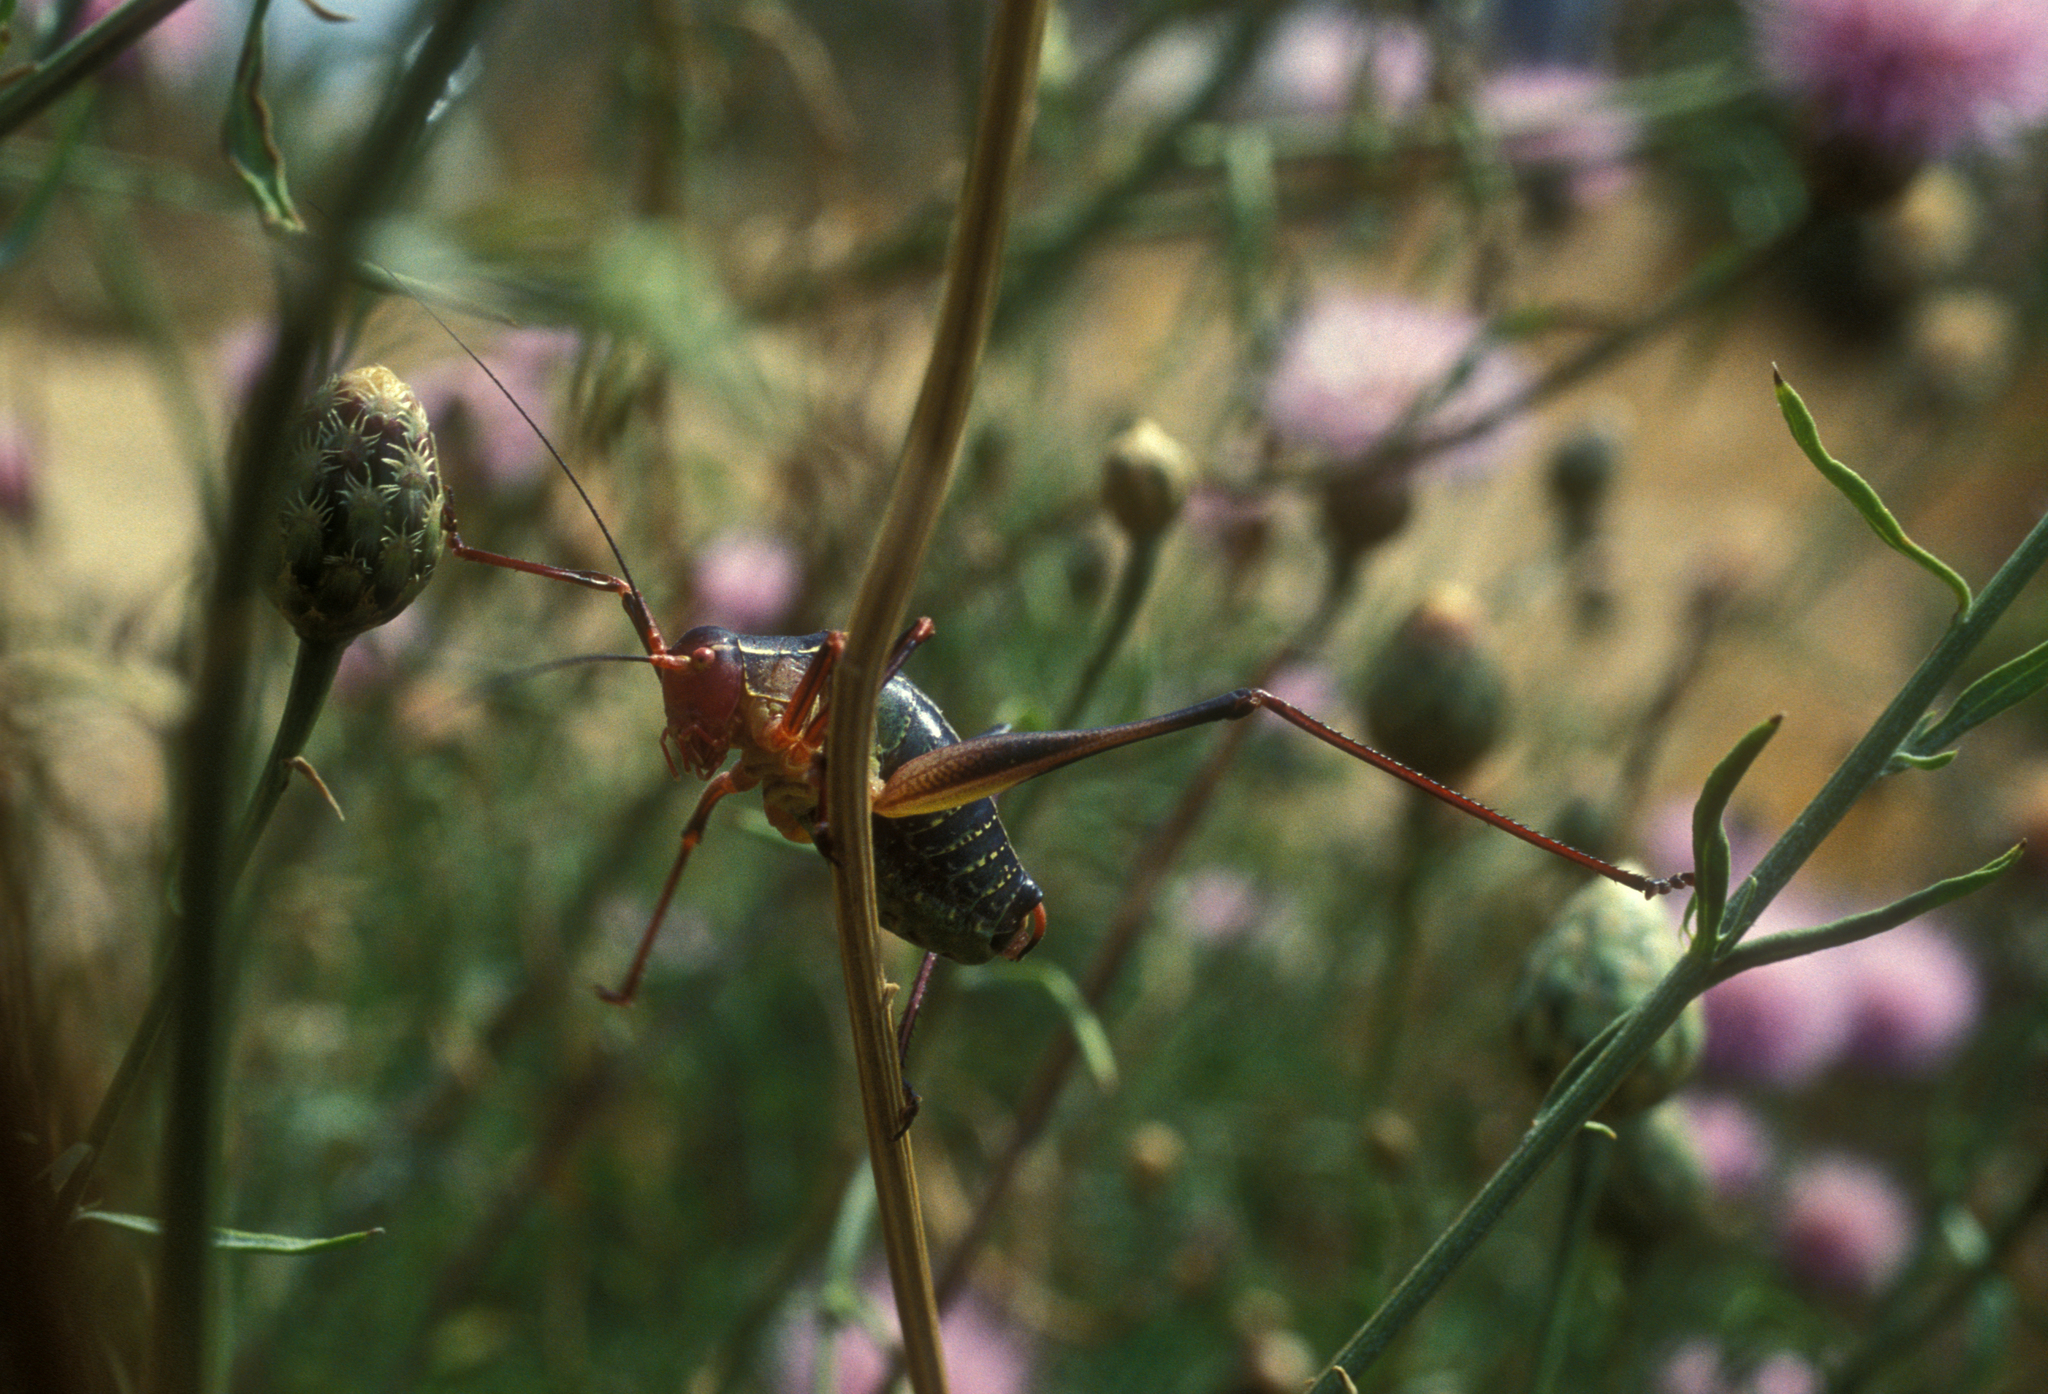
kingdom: Animalia
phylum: Arthropoda
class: Insecta
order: Orthoptera
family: Tettigoniidae
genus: Barbitistes
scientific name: Barbitistes fischeri
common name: Southern saw-tailed bush-cricket
